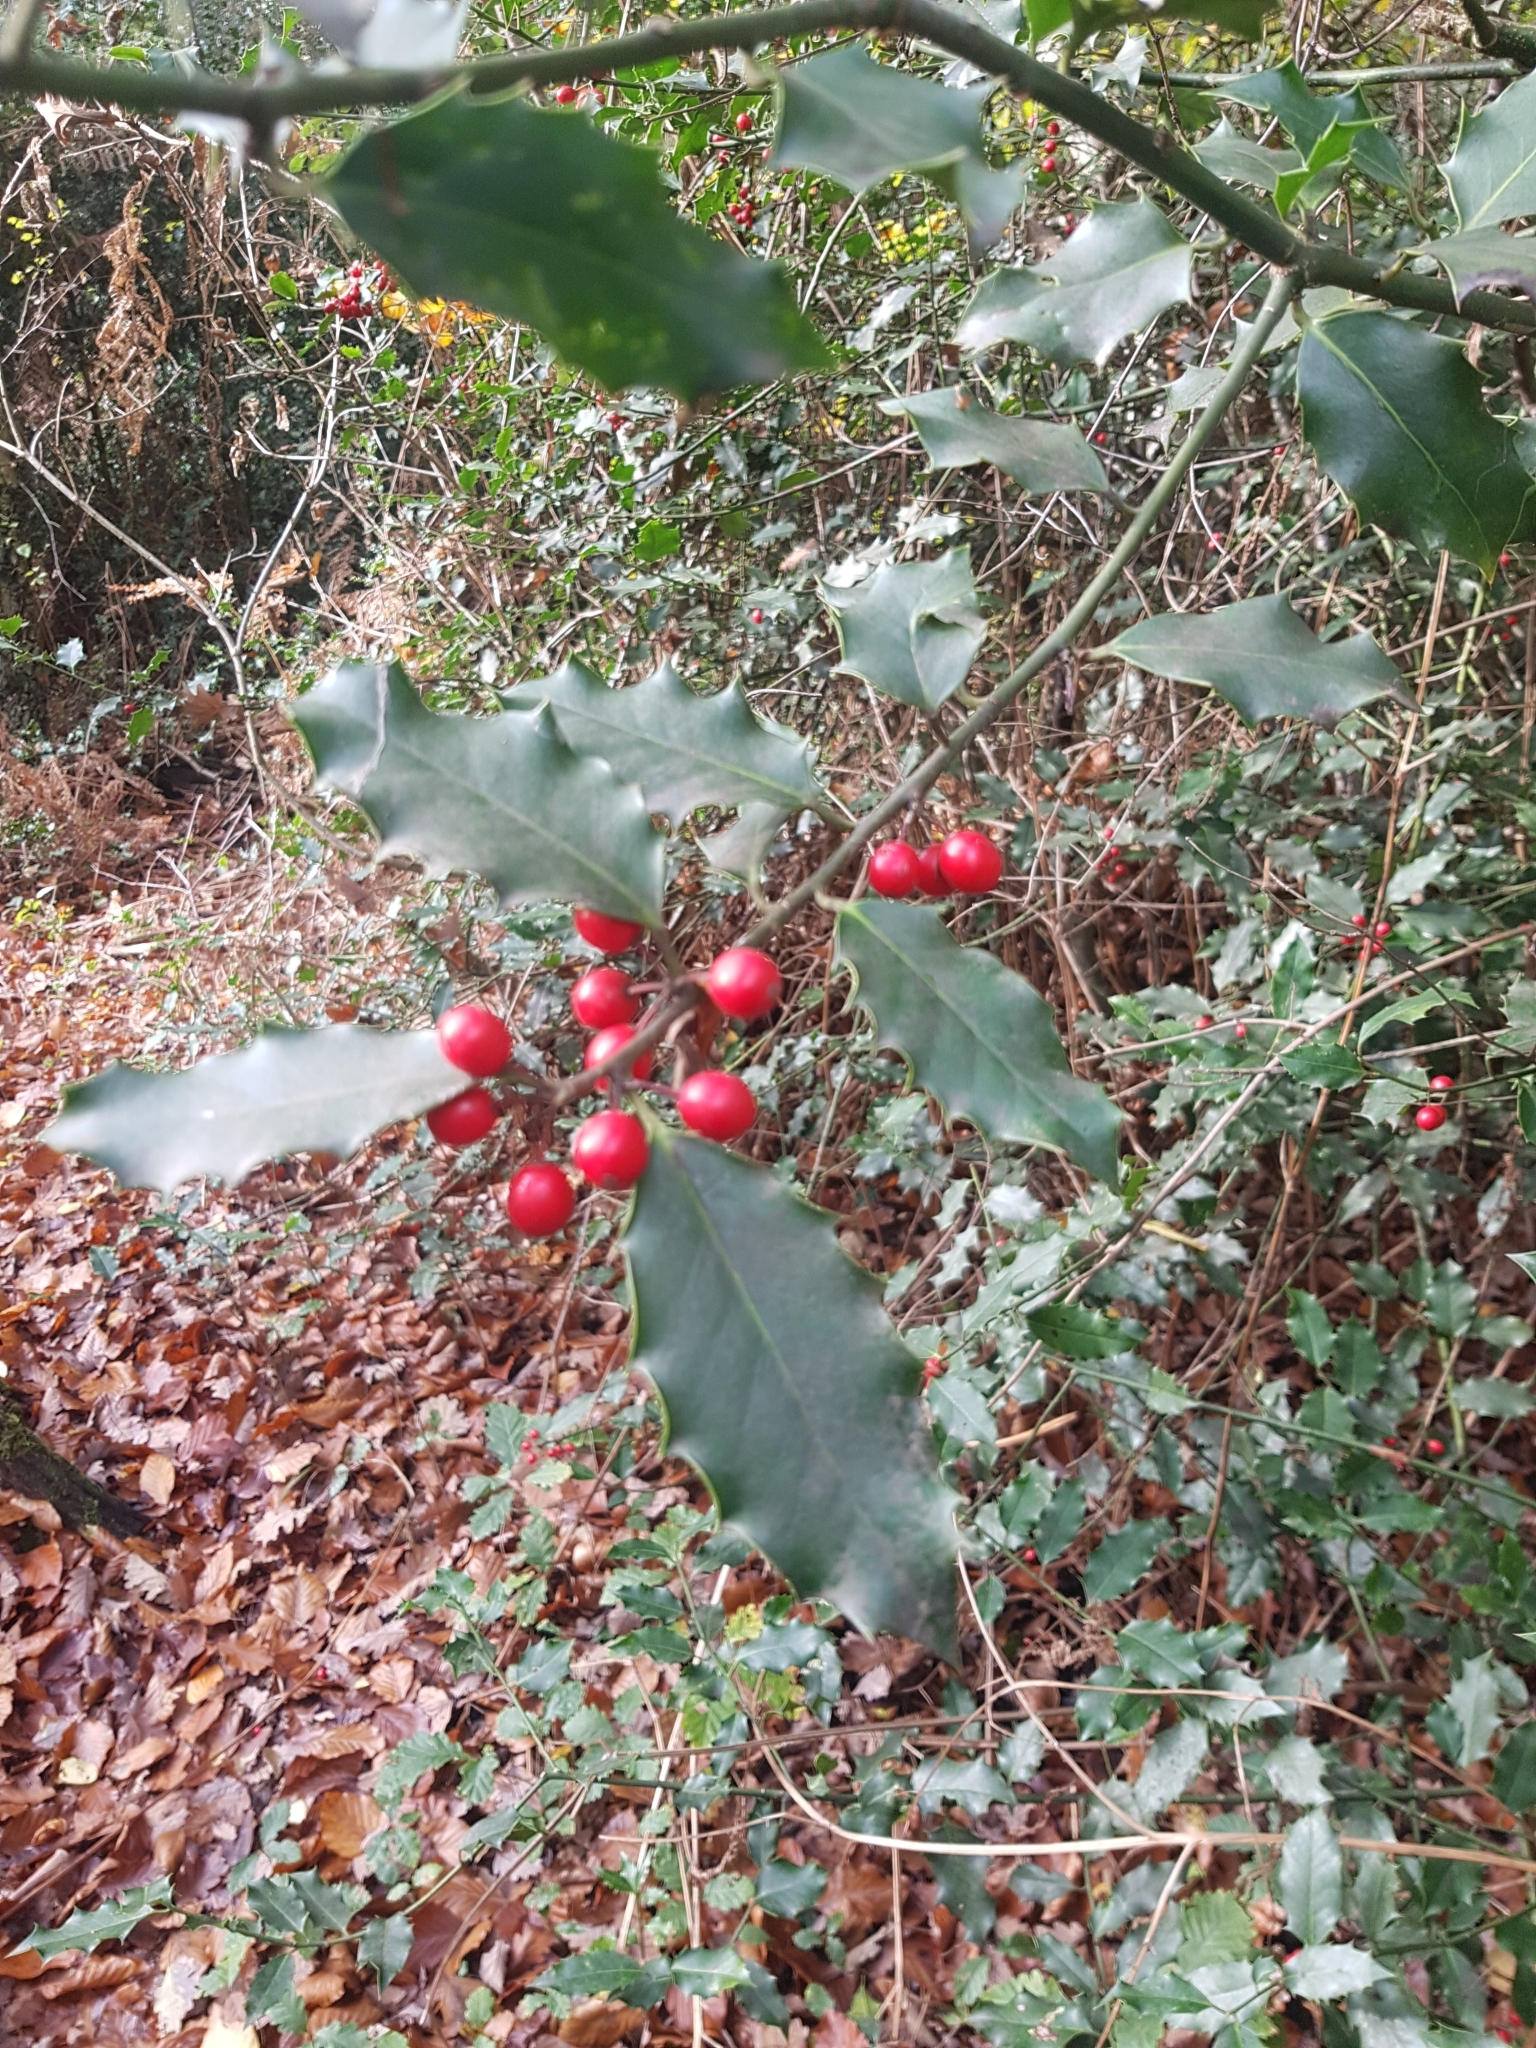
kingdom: Plantae
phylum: Tracheophyta
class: Magnoliopsida
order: Aquifoliales
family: Aquifoliaceae
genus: Ilex
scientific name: Ilex aquifolium
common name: English holly
